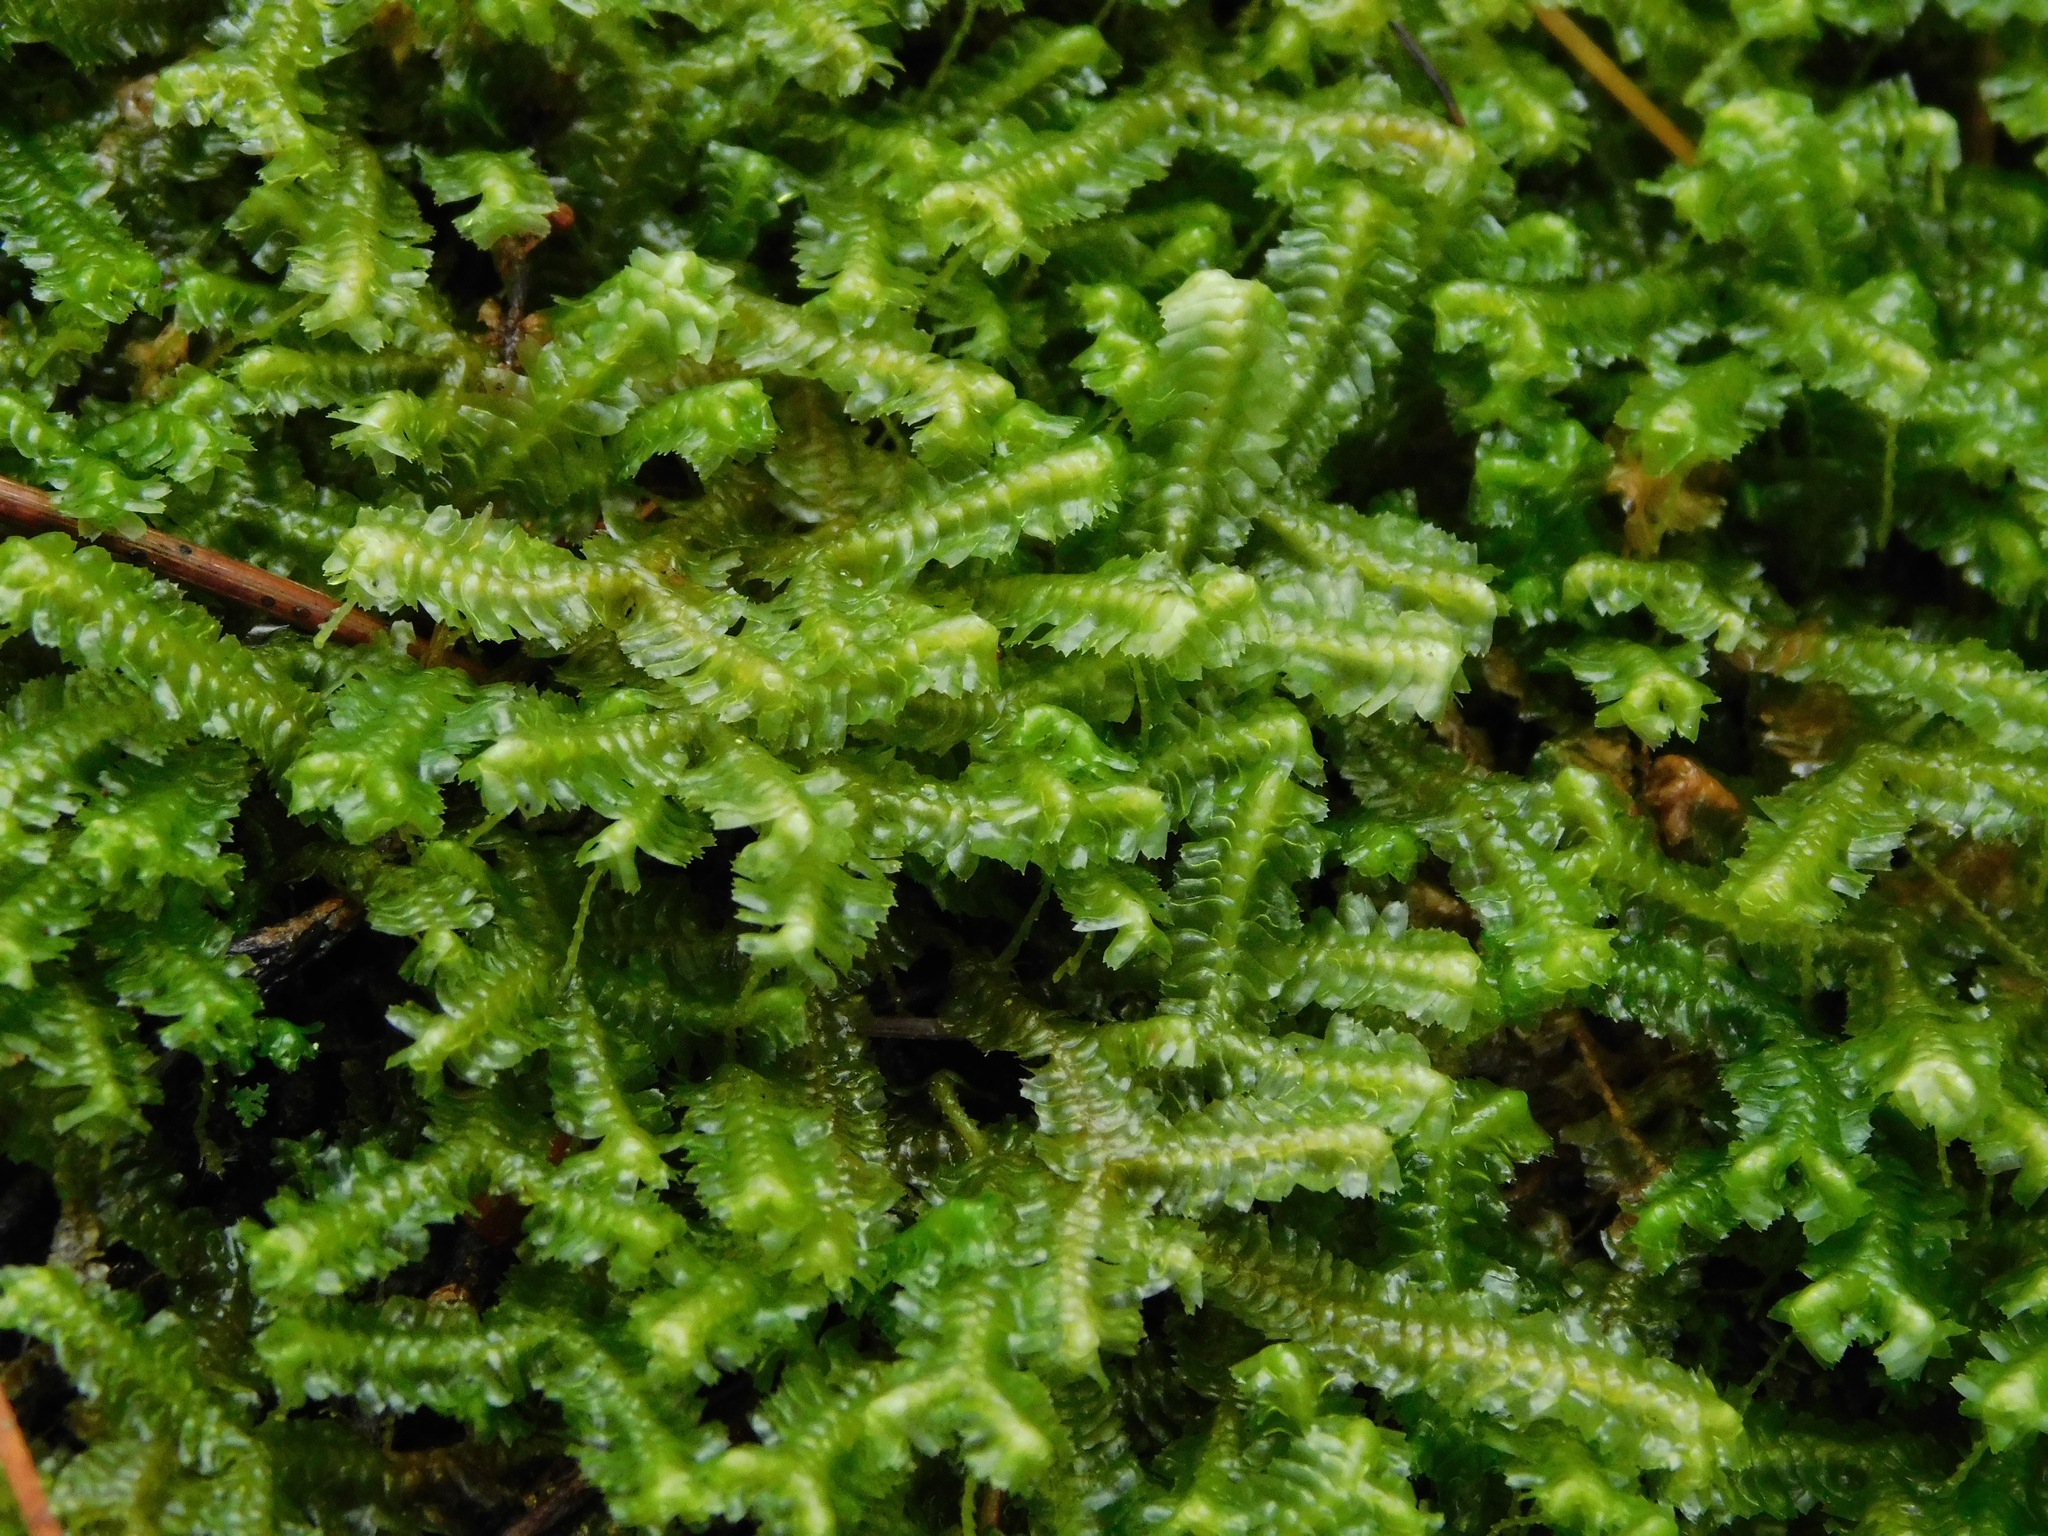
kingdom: Plantae
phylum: Marchantiophyta
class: Jungermanniopsida
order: Jungermanniales
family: Lepidoziaceae
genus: Bazzania
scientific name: Bazzania trilobata
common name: Three-lobed whipwort
